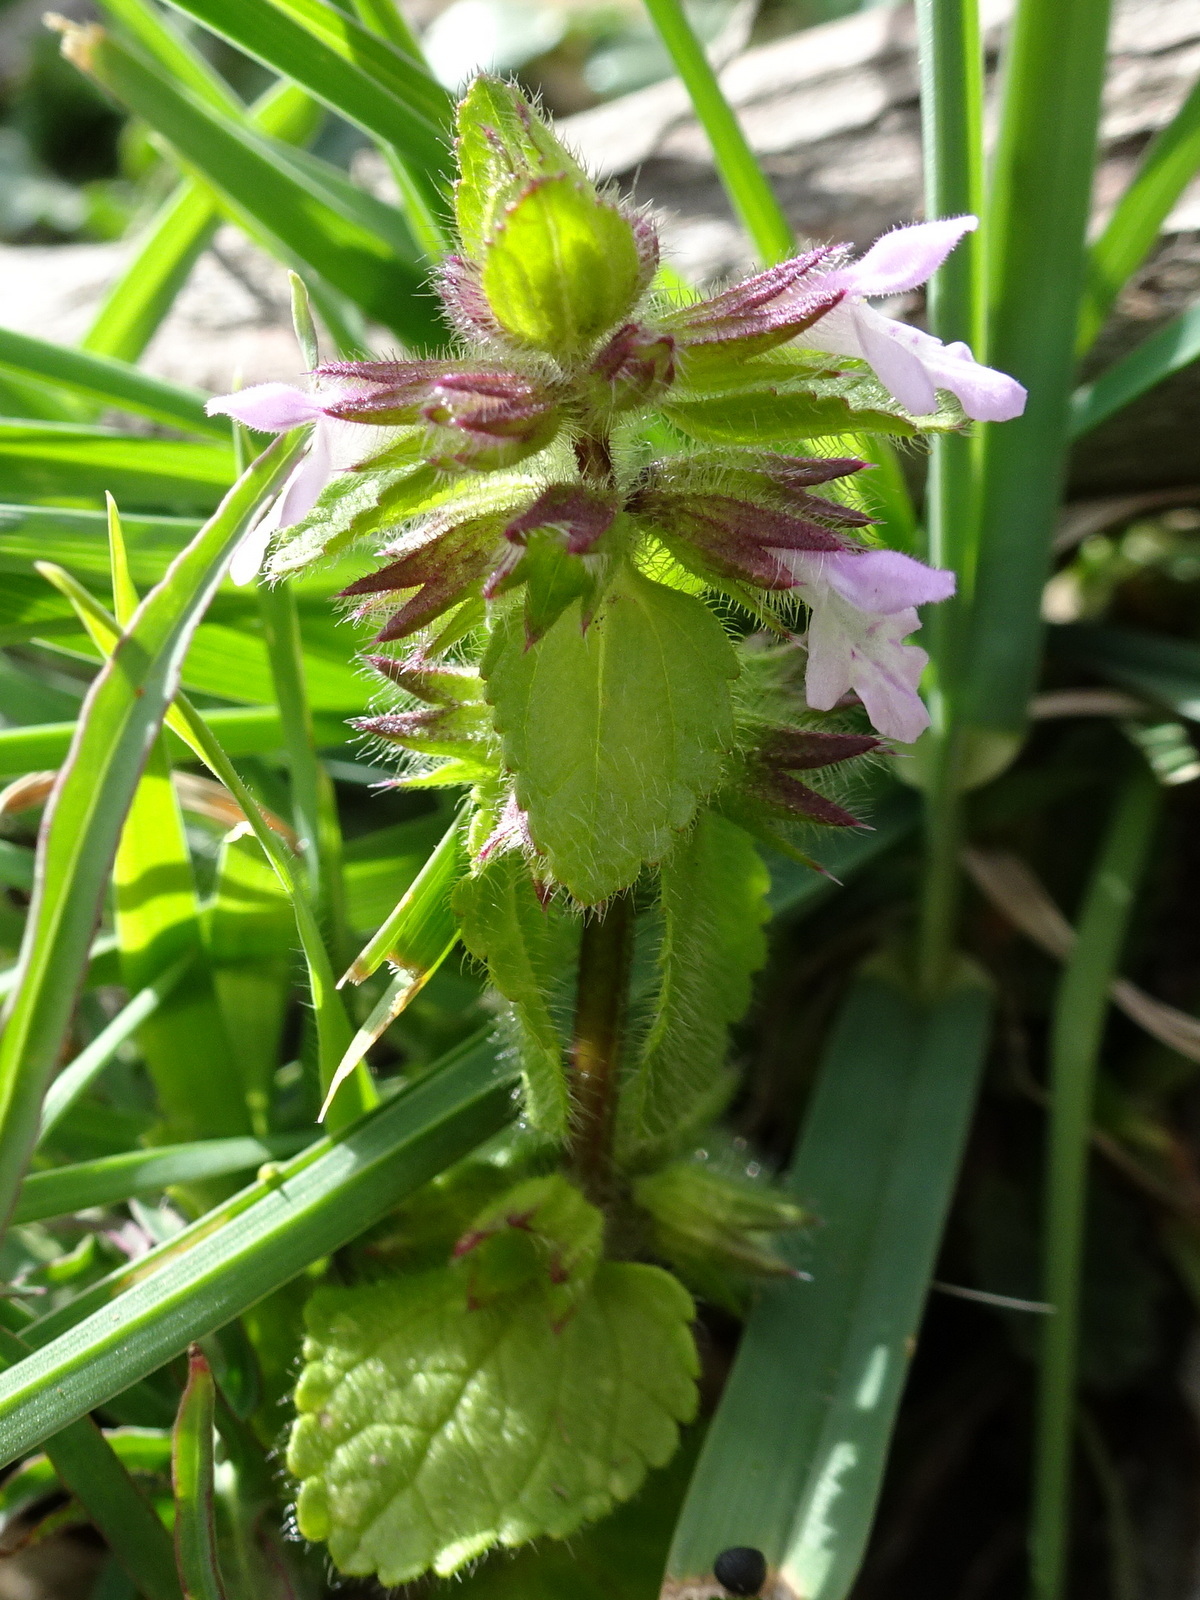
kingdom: Plantae
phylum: Tracheophyta
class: Magnoliopsida
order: Lamiales
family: Lamiaceae
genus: Stachys
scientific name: Stachys arvensis
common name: Field woundwort
